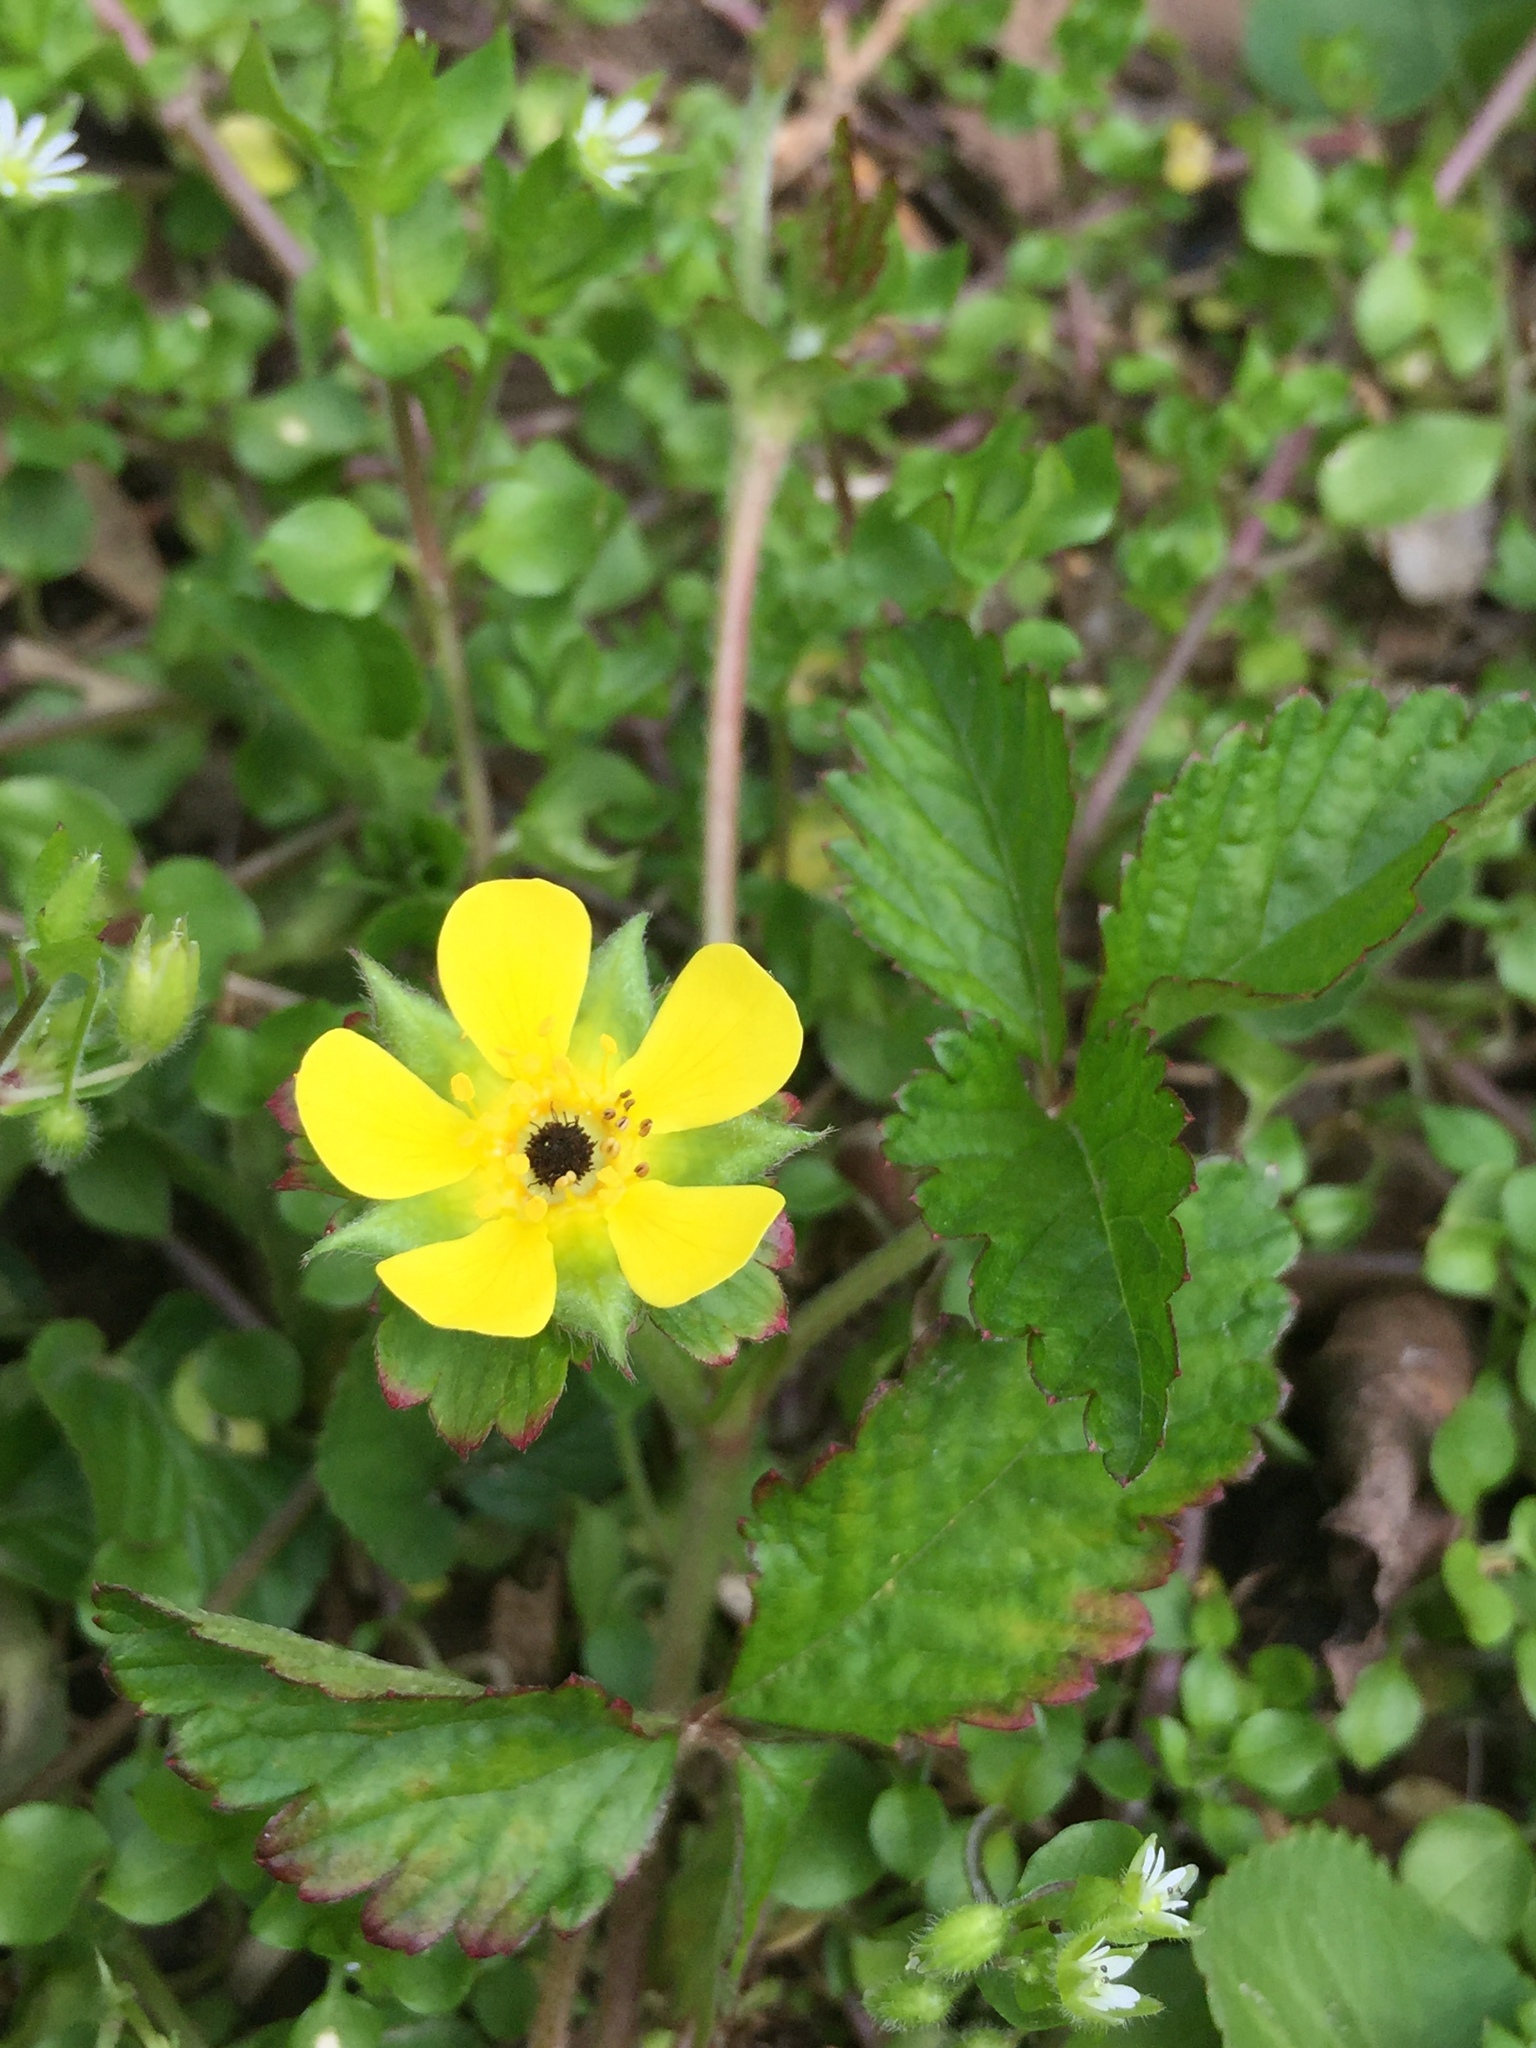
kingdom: Plantae
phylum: Tracheophyta
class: Magnoliopsida
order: Rosales
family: Rosaceae
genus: Potentilla
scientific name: Potentilla indica
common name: Yellow-flowered strawberry
